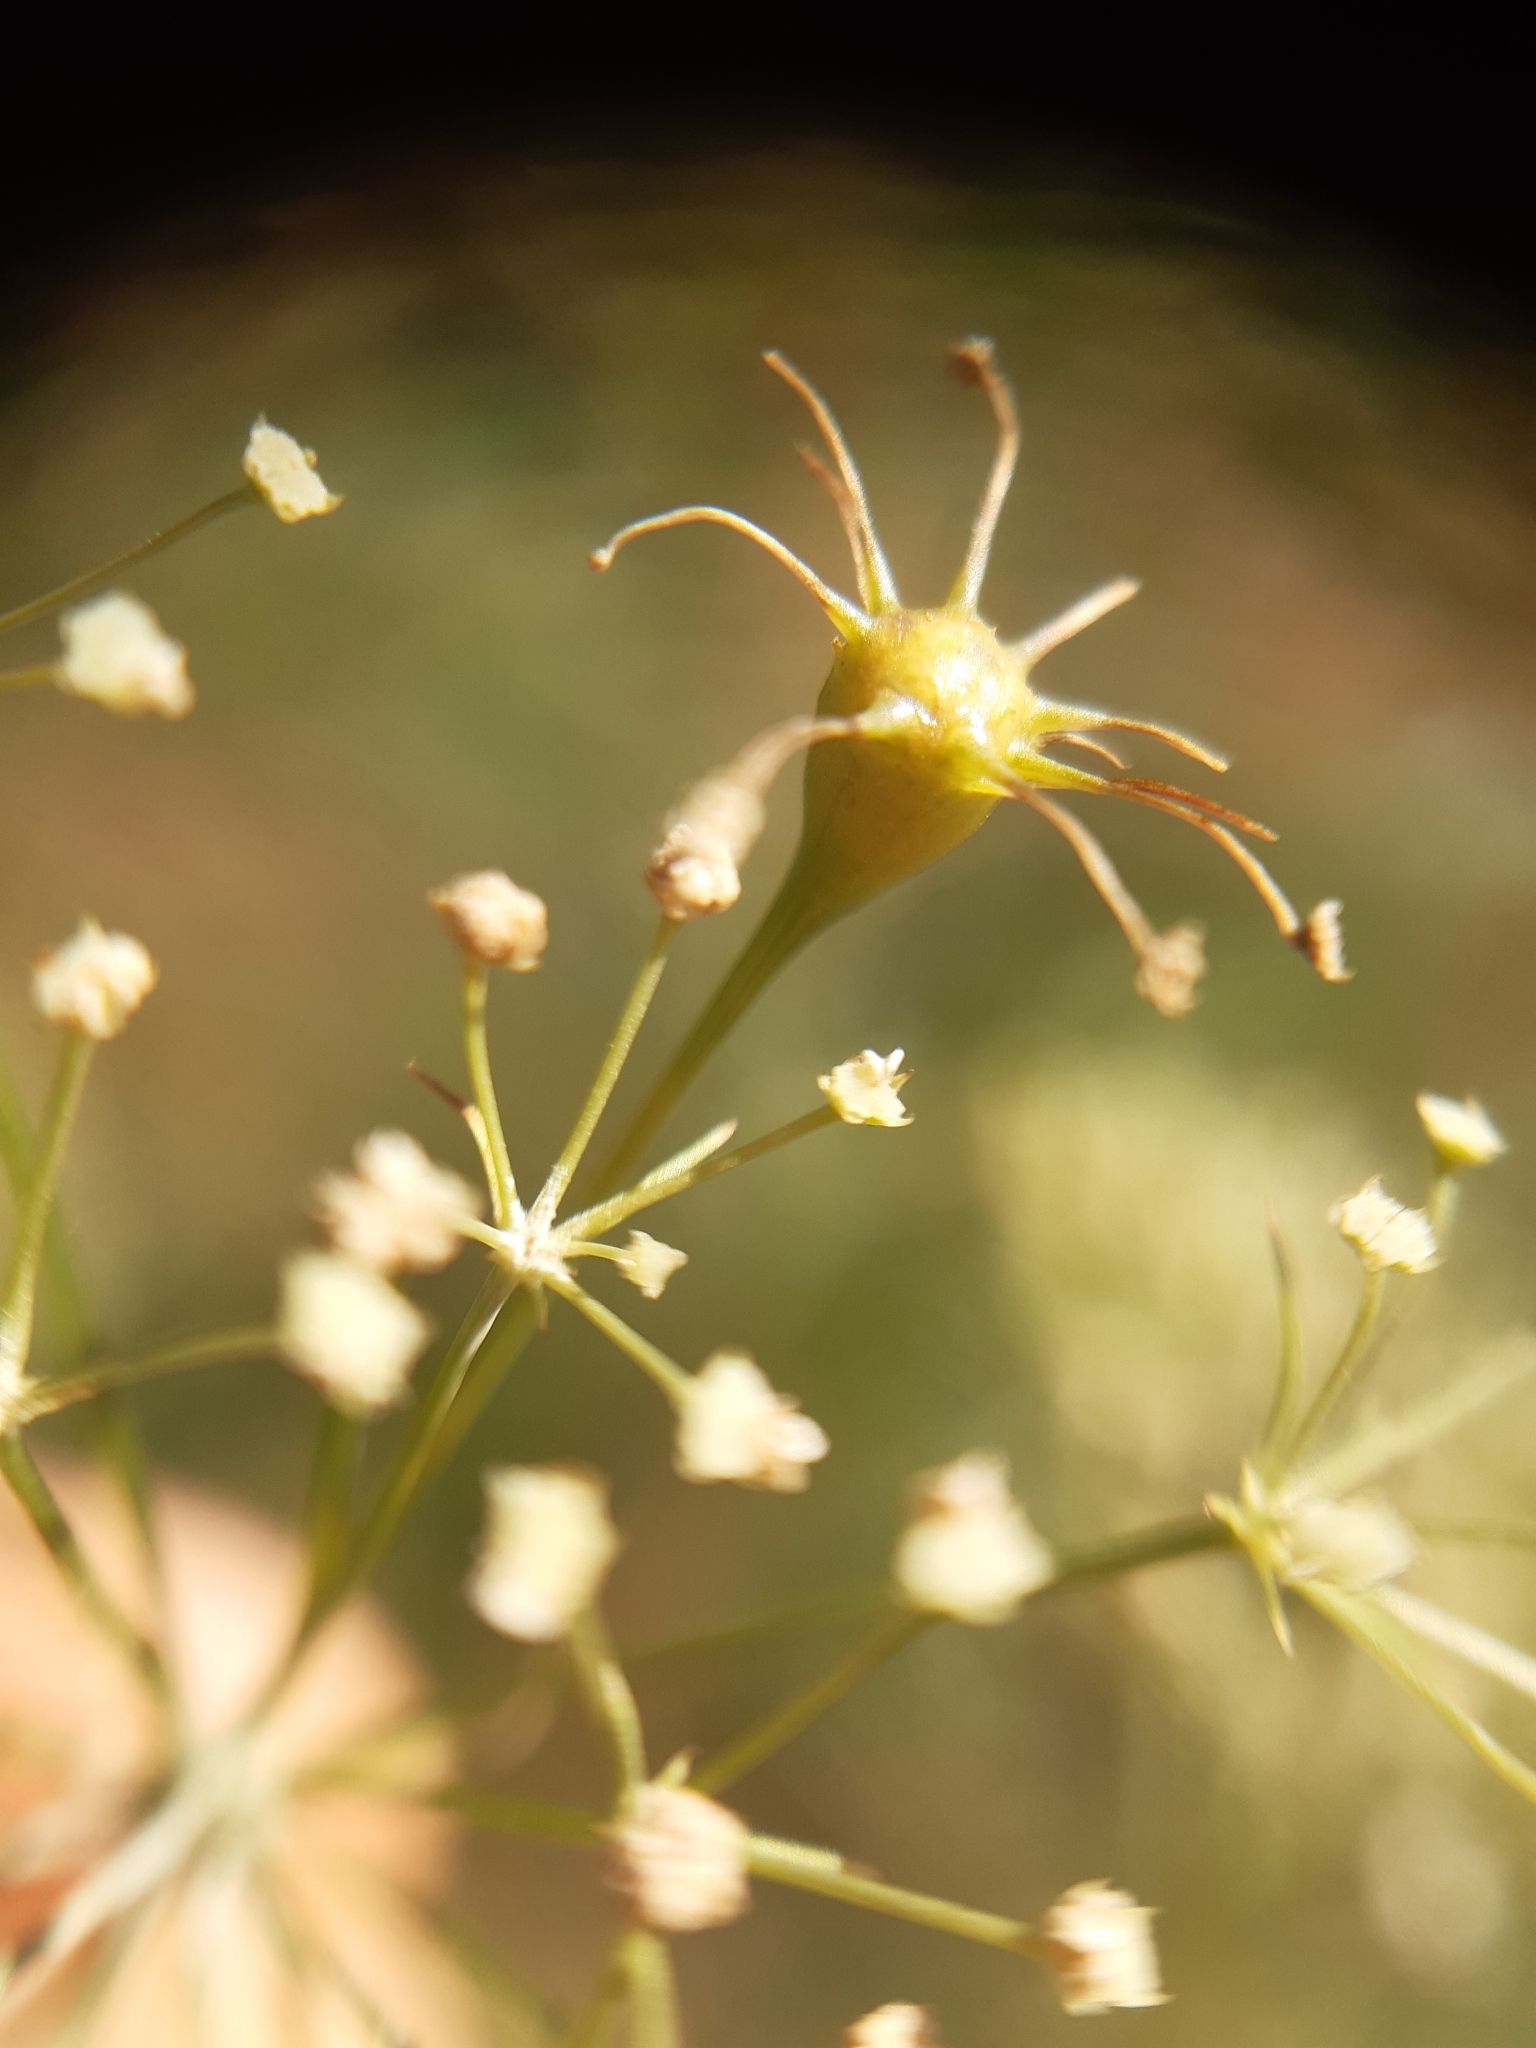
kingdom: Animalia
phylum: Arthropoda
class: Insecta
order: Diptera
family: Cecidomyiidae
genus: Lasioptera
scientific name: Lasioptera carophila
